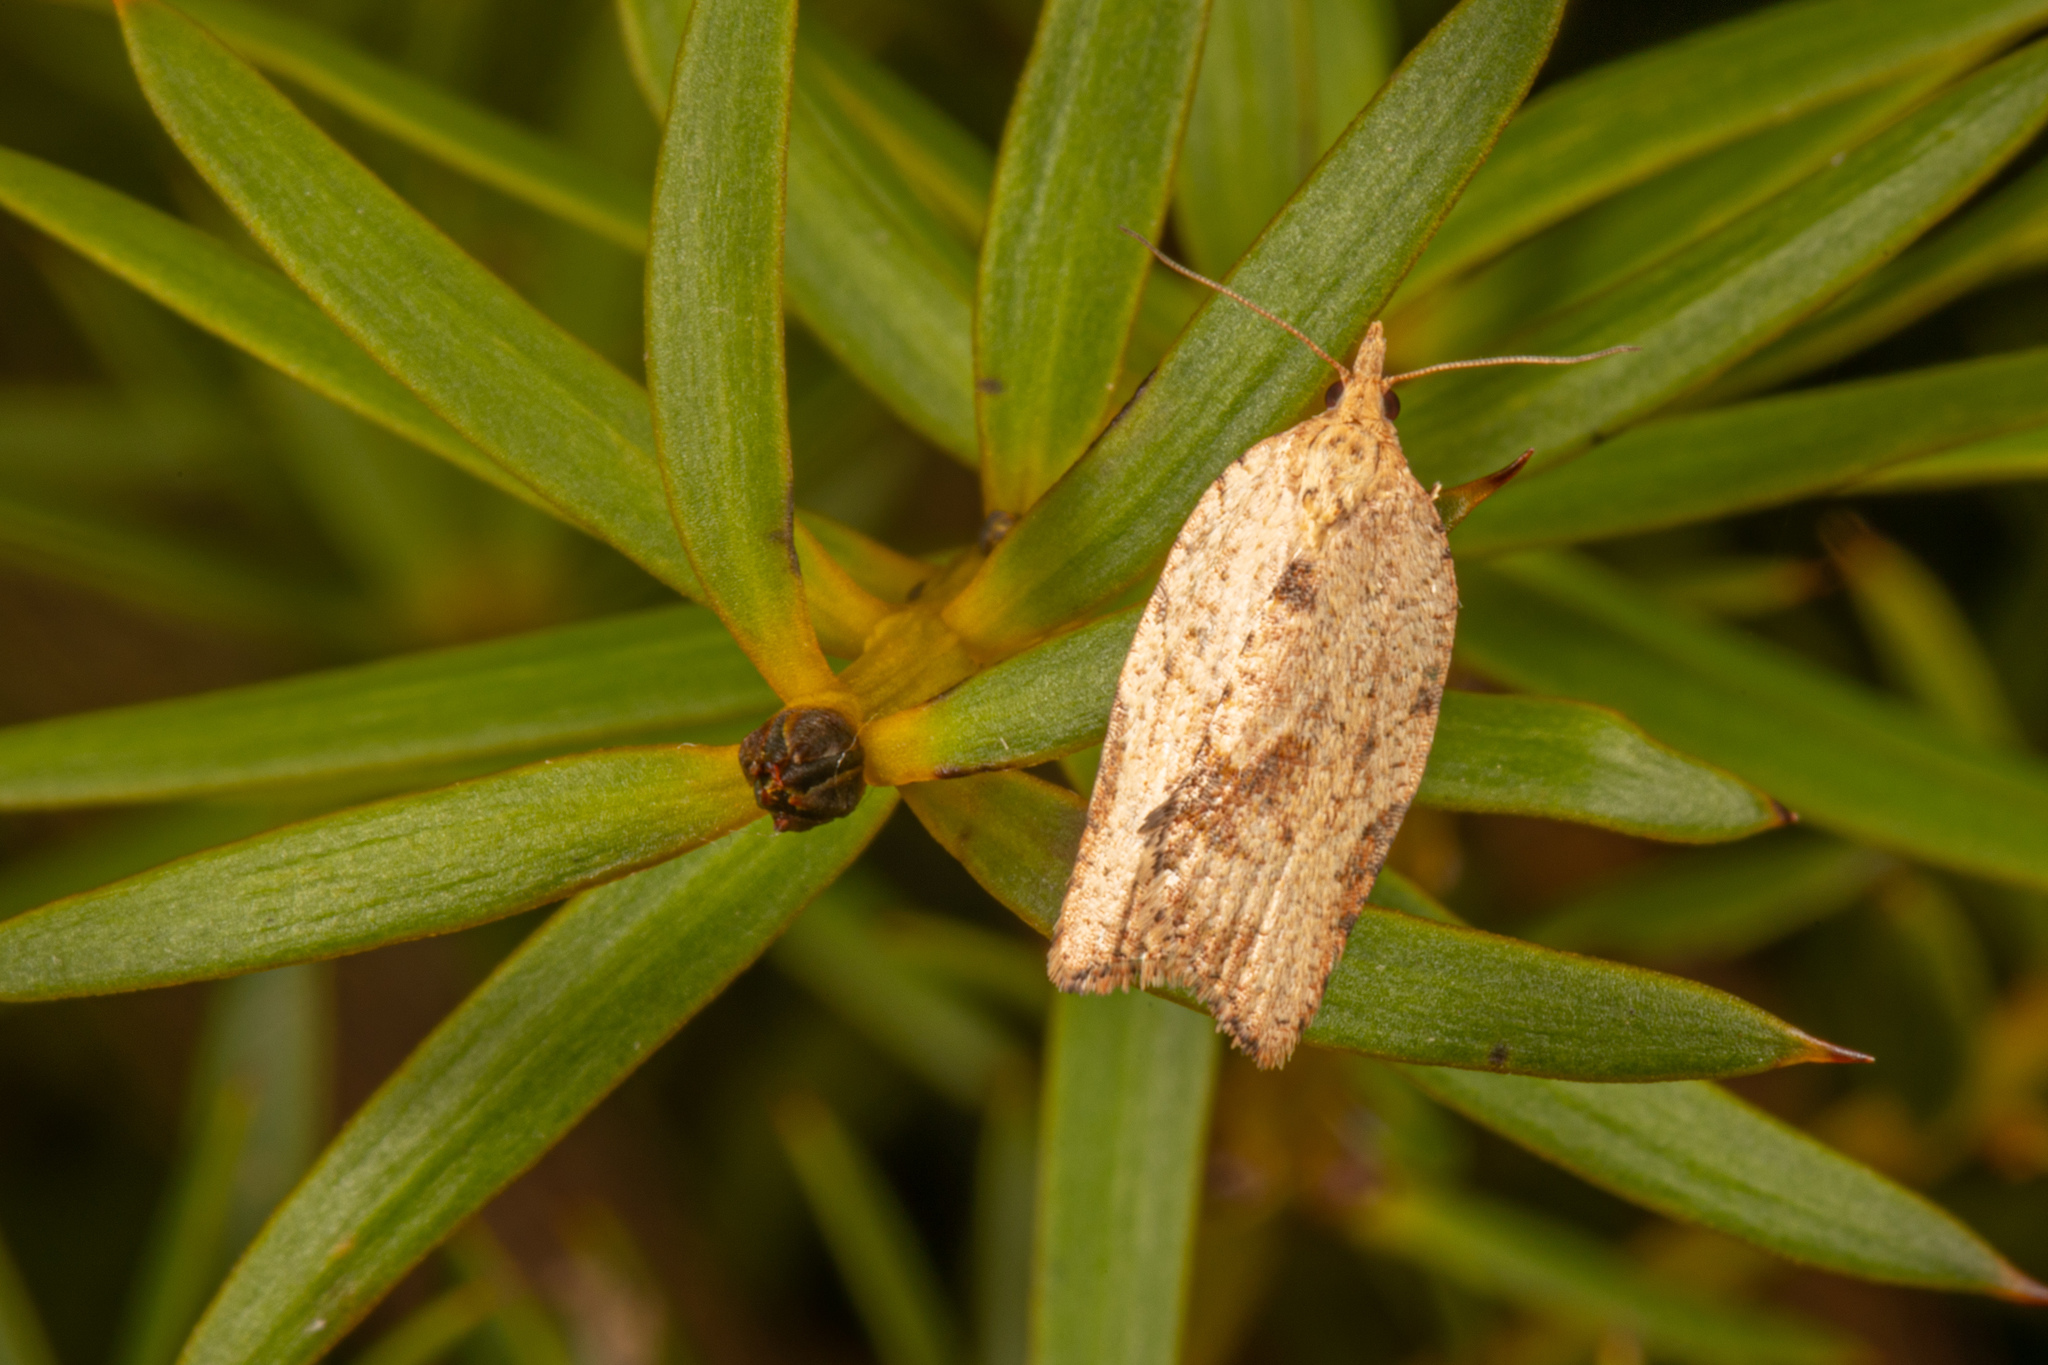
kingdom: Animalia
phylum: Arthropoda
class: Insecta
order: Lepidoptera
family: Tortricidae
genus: Epiphyas
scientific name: Epiphyas postvittana
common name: Light brown apple moth
